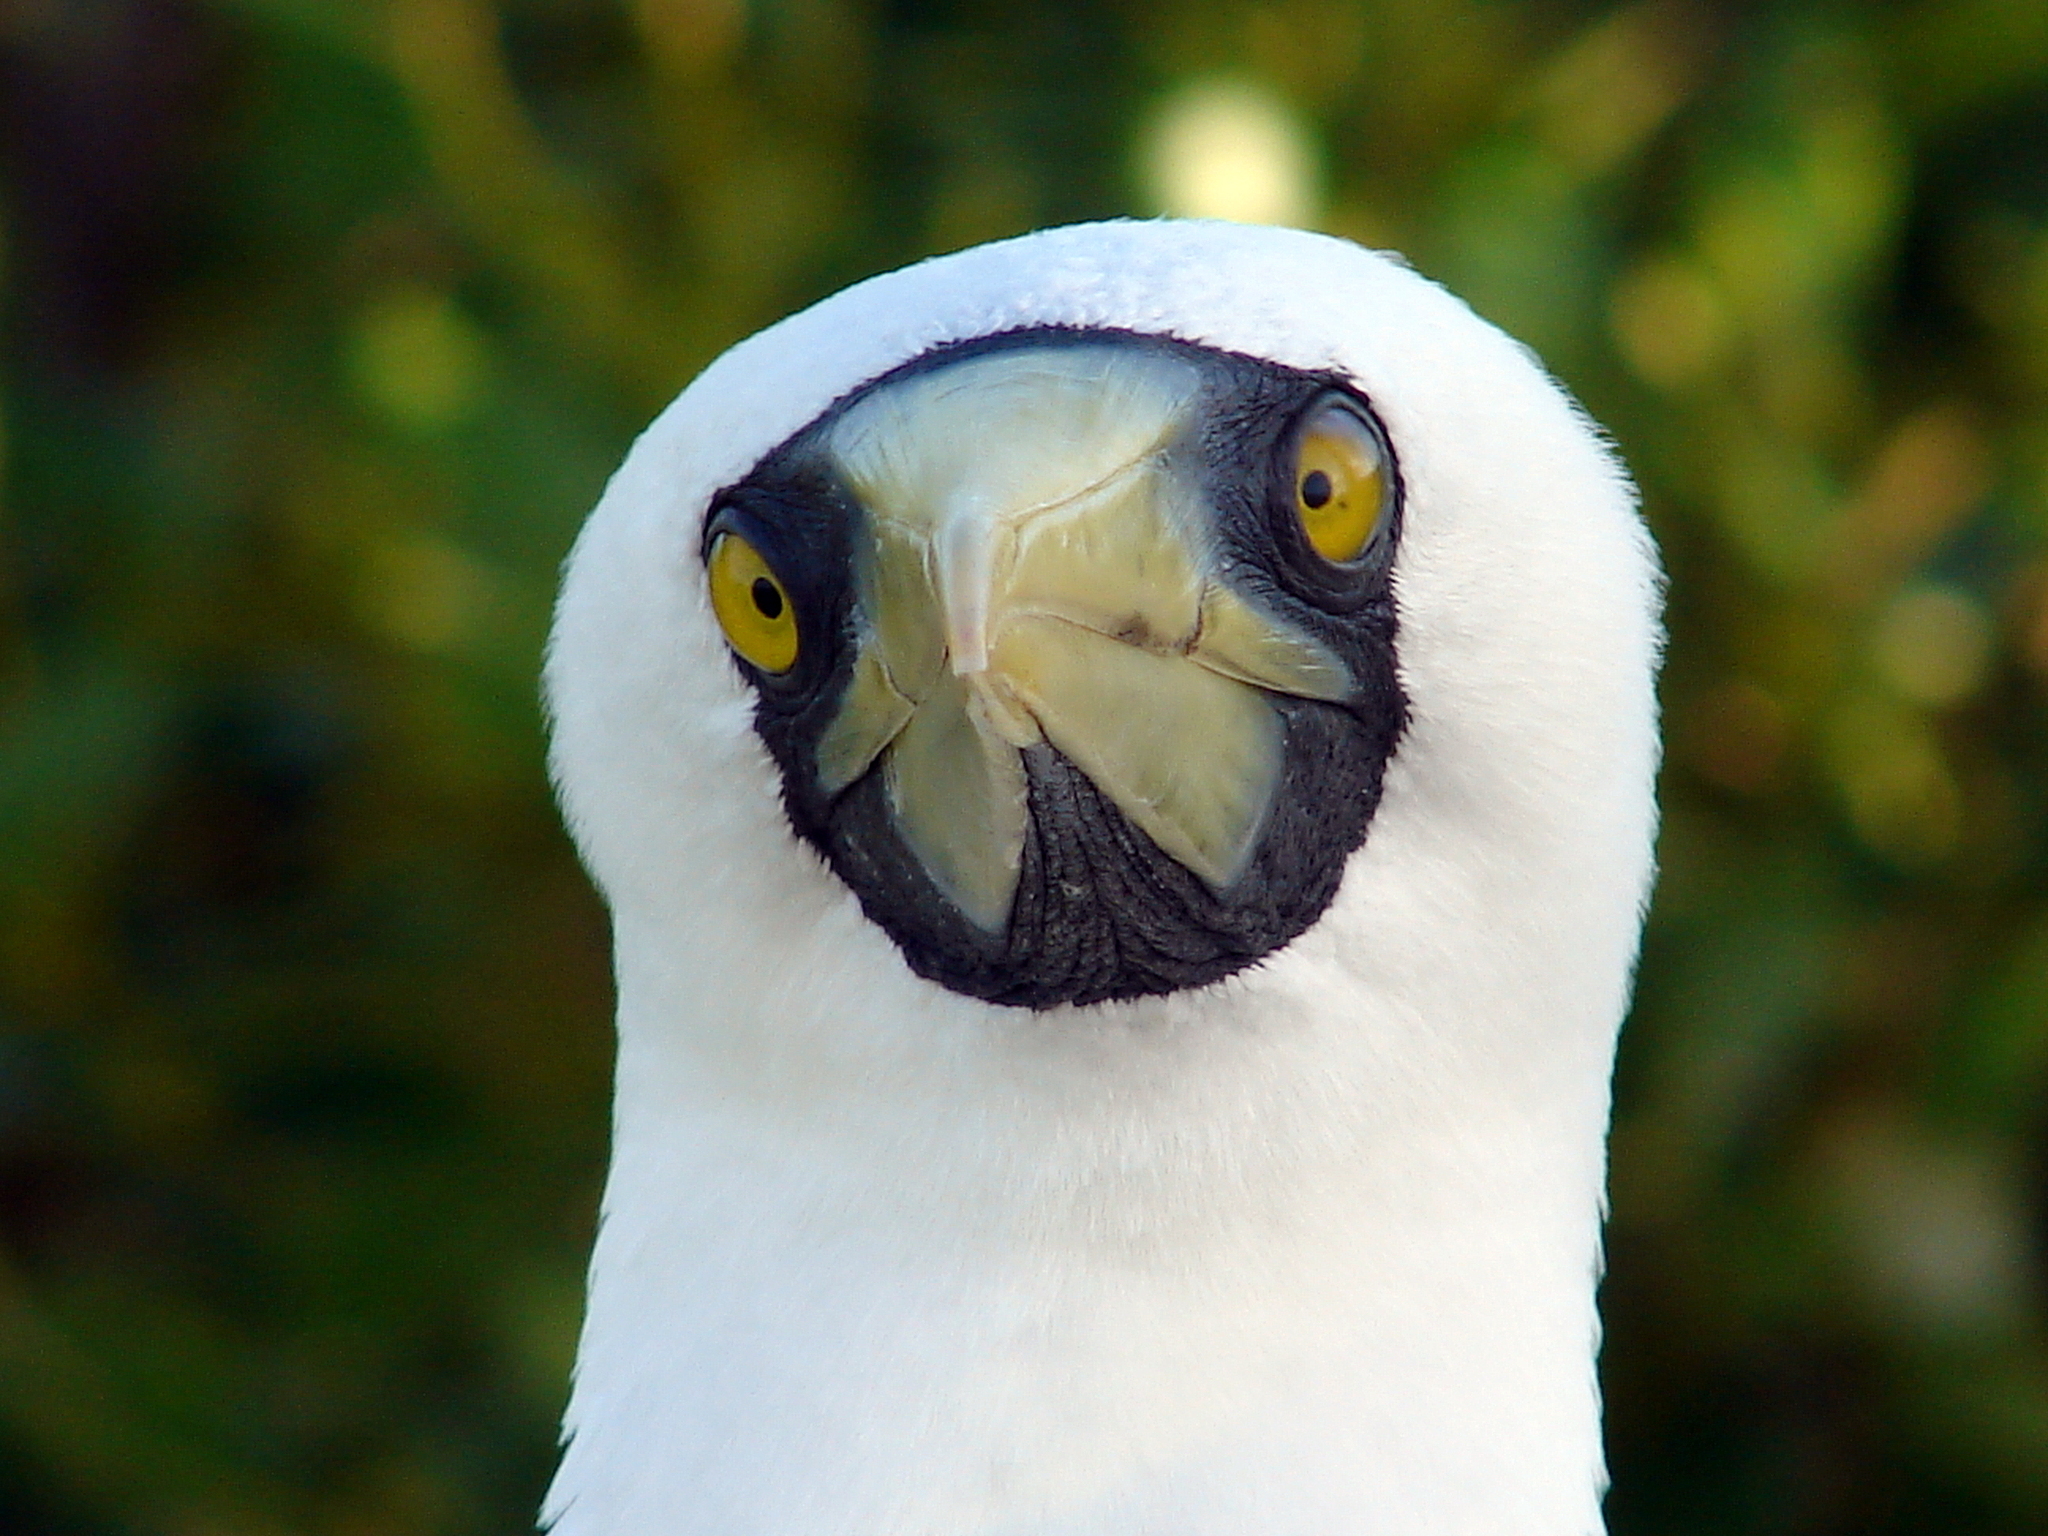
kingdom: Animalia
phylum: Chordata
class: Aves
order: Suliformes
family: Sulidae
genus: Sula
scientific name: Sula dactylatra
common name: Masked booby
